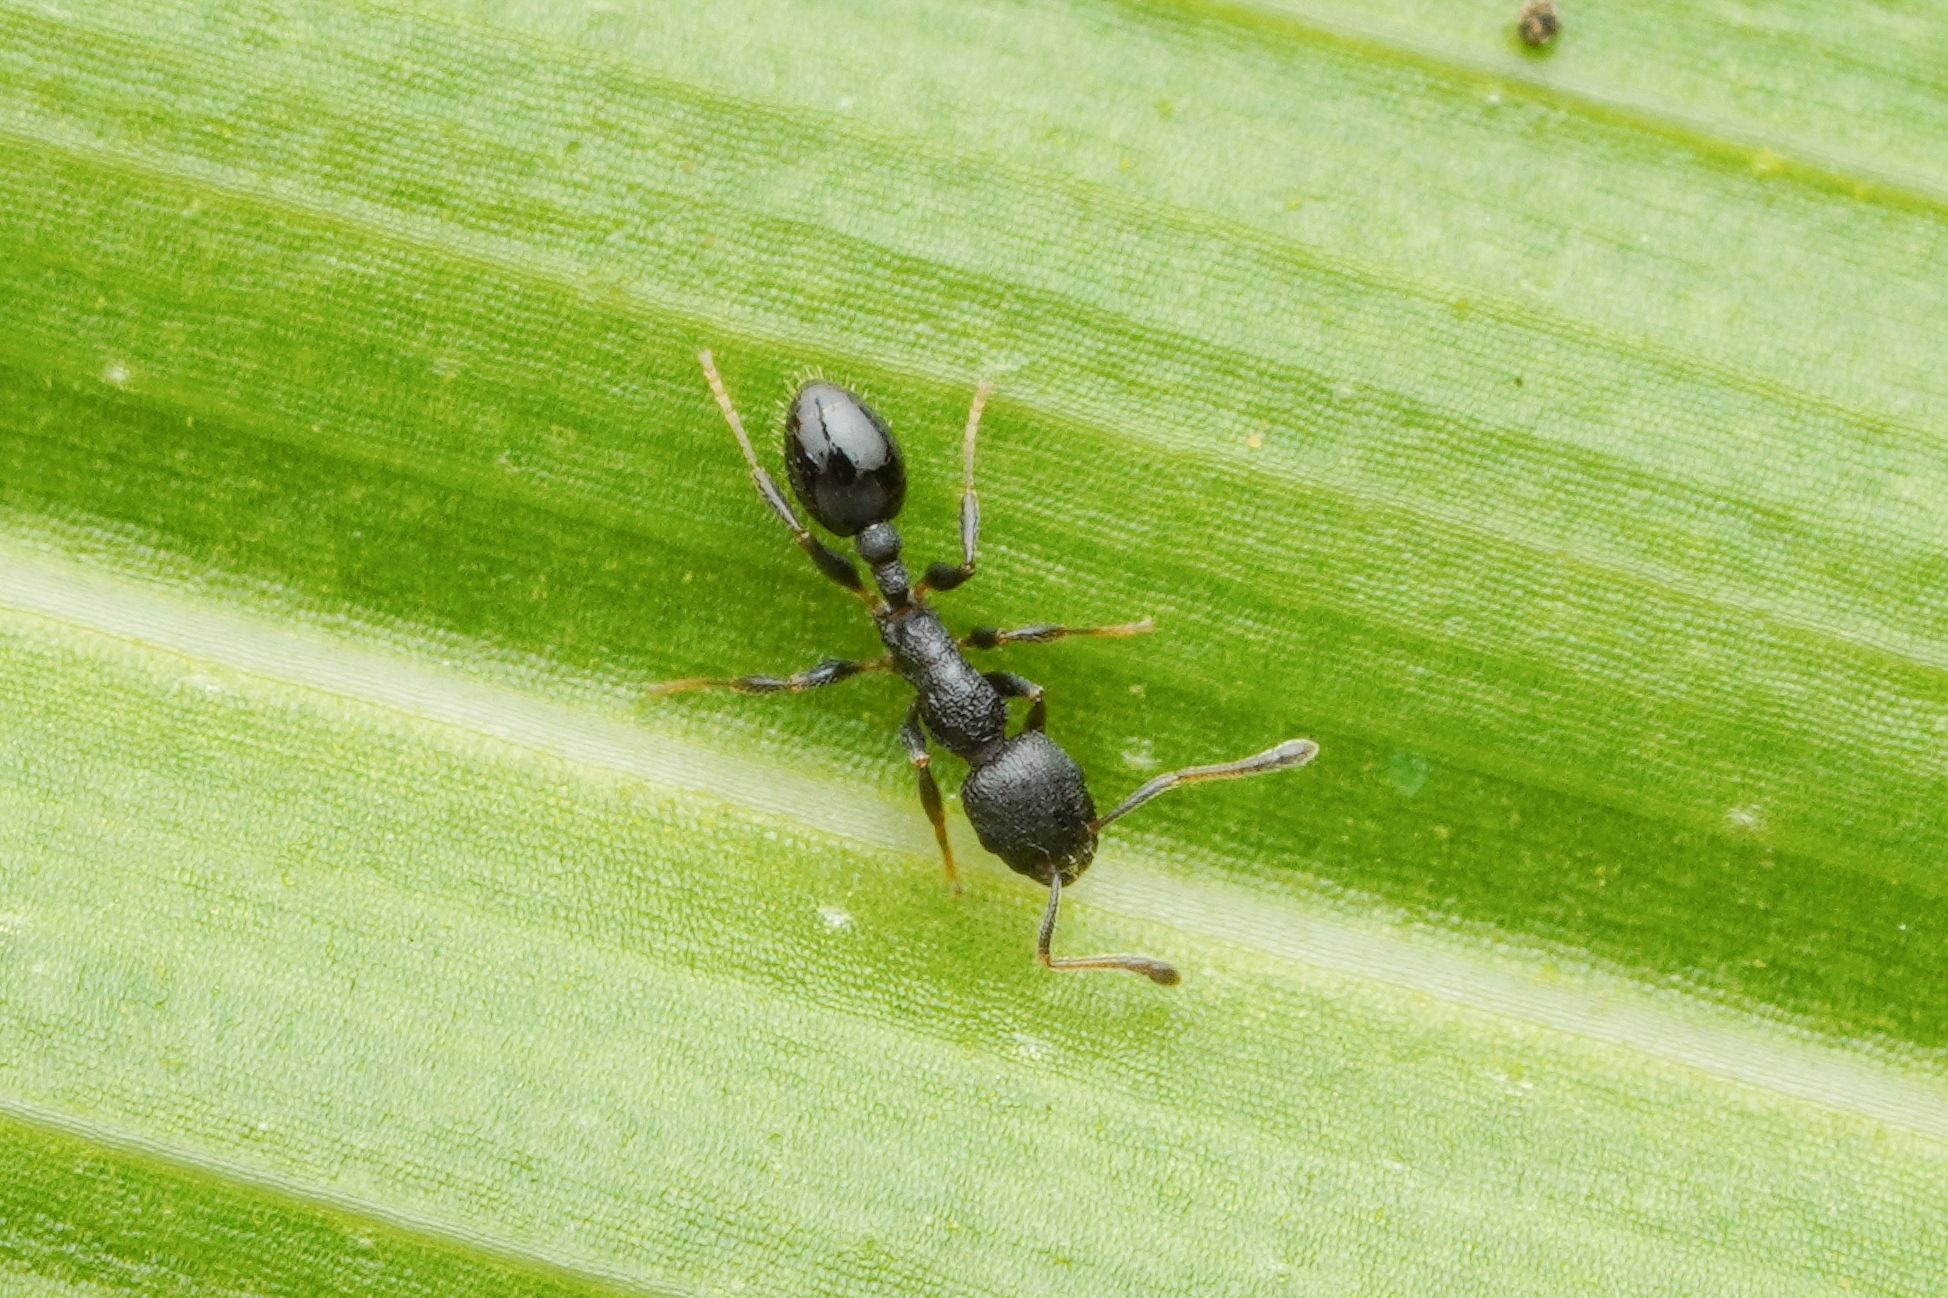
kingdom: Animalia
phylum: Arthropoda
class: Insecta
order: Hymenoptera
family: Formicidae
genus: Temnothorax
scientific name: Temnothorax
